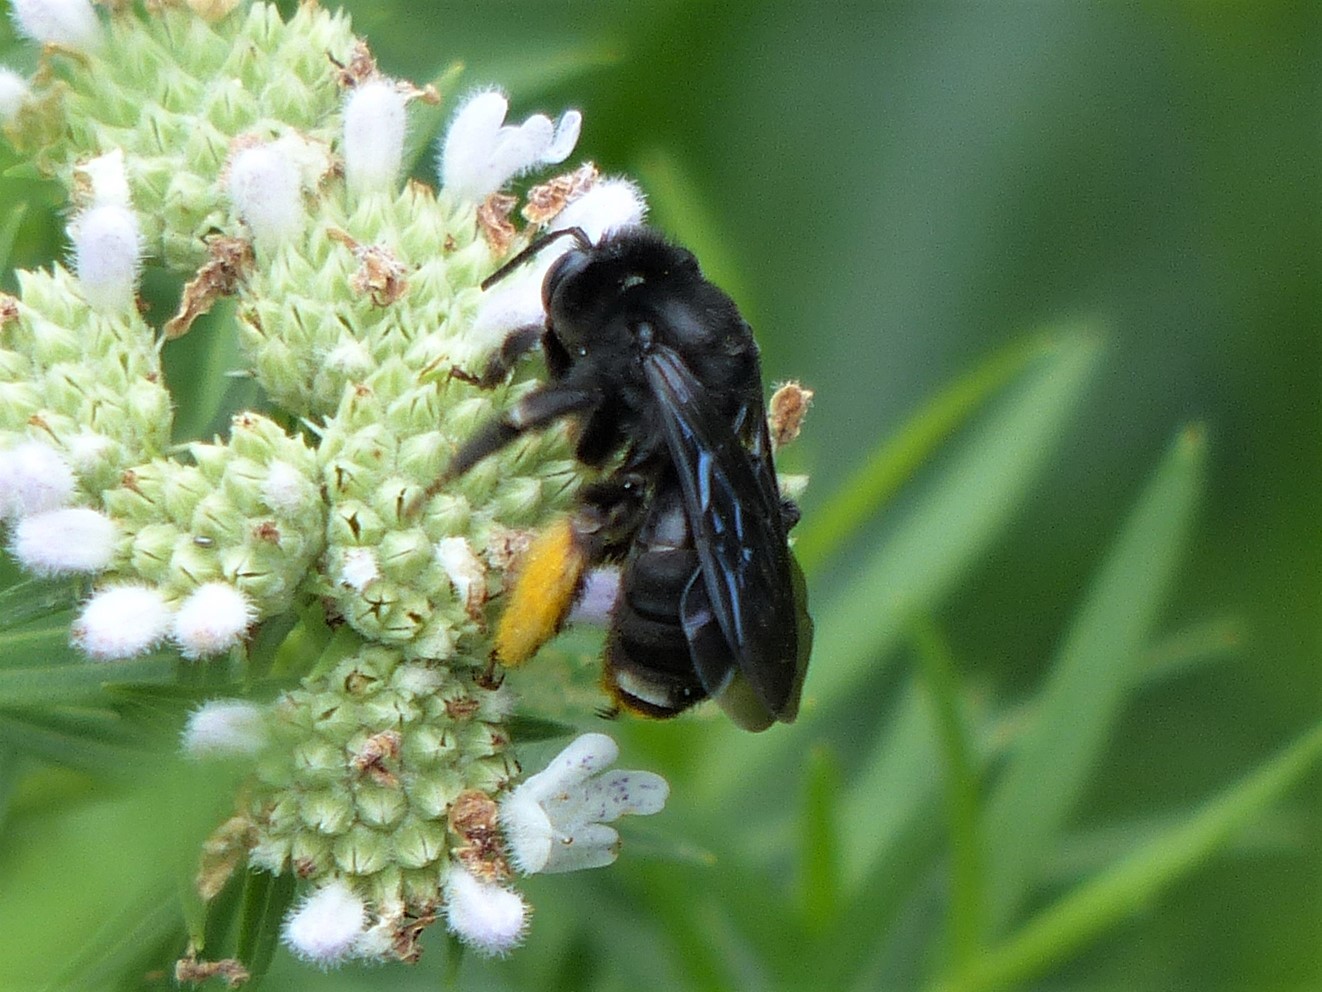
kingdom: Animalia
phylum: Arthropoda
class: Insecta
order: Hymenoptera
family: Apidae
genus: Melissodes
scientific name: Melissodes bimaculatus
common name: Two-spotted long-horned bee
